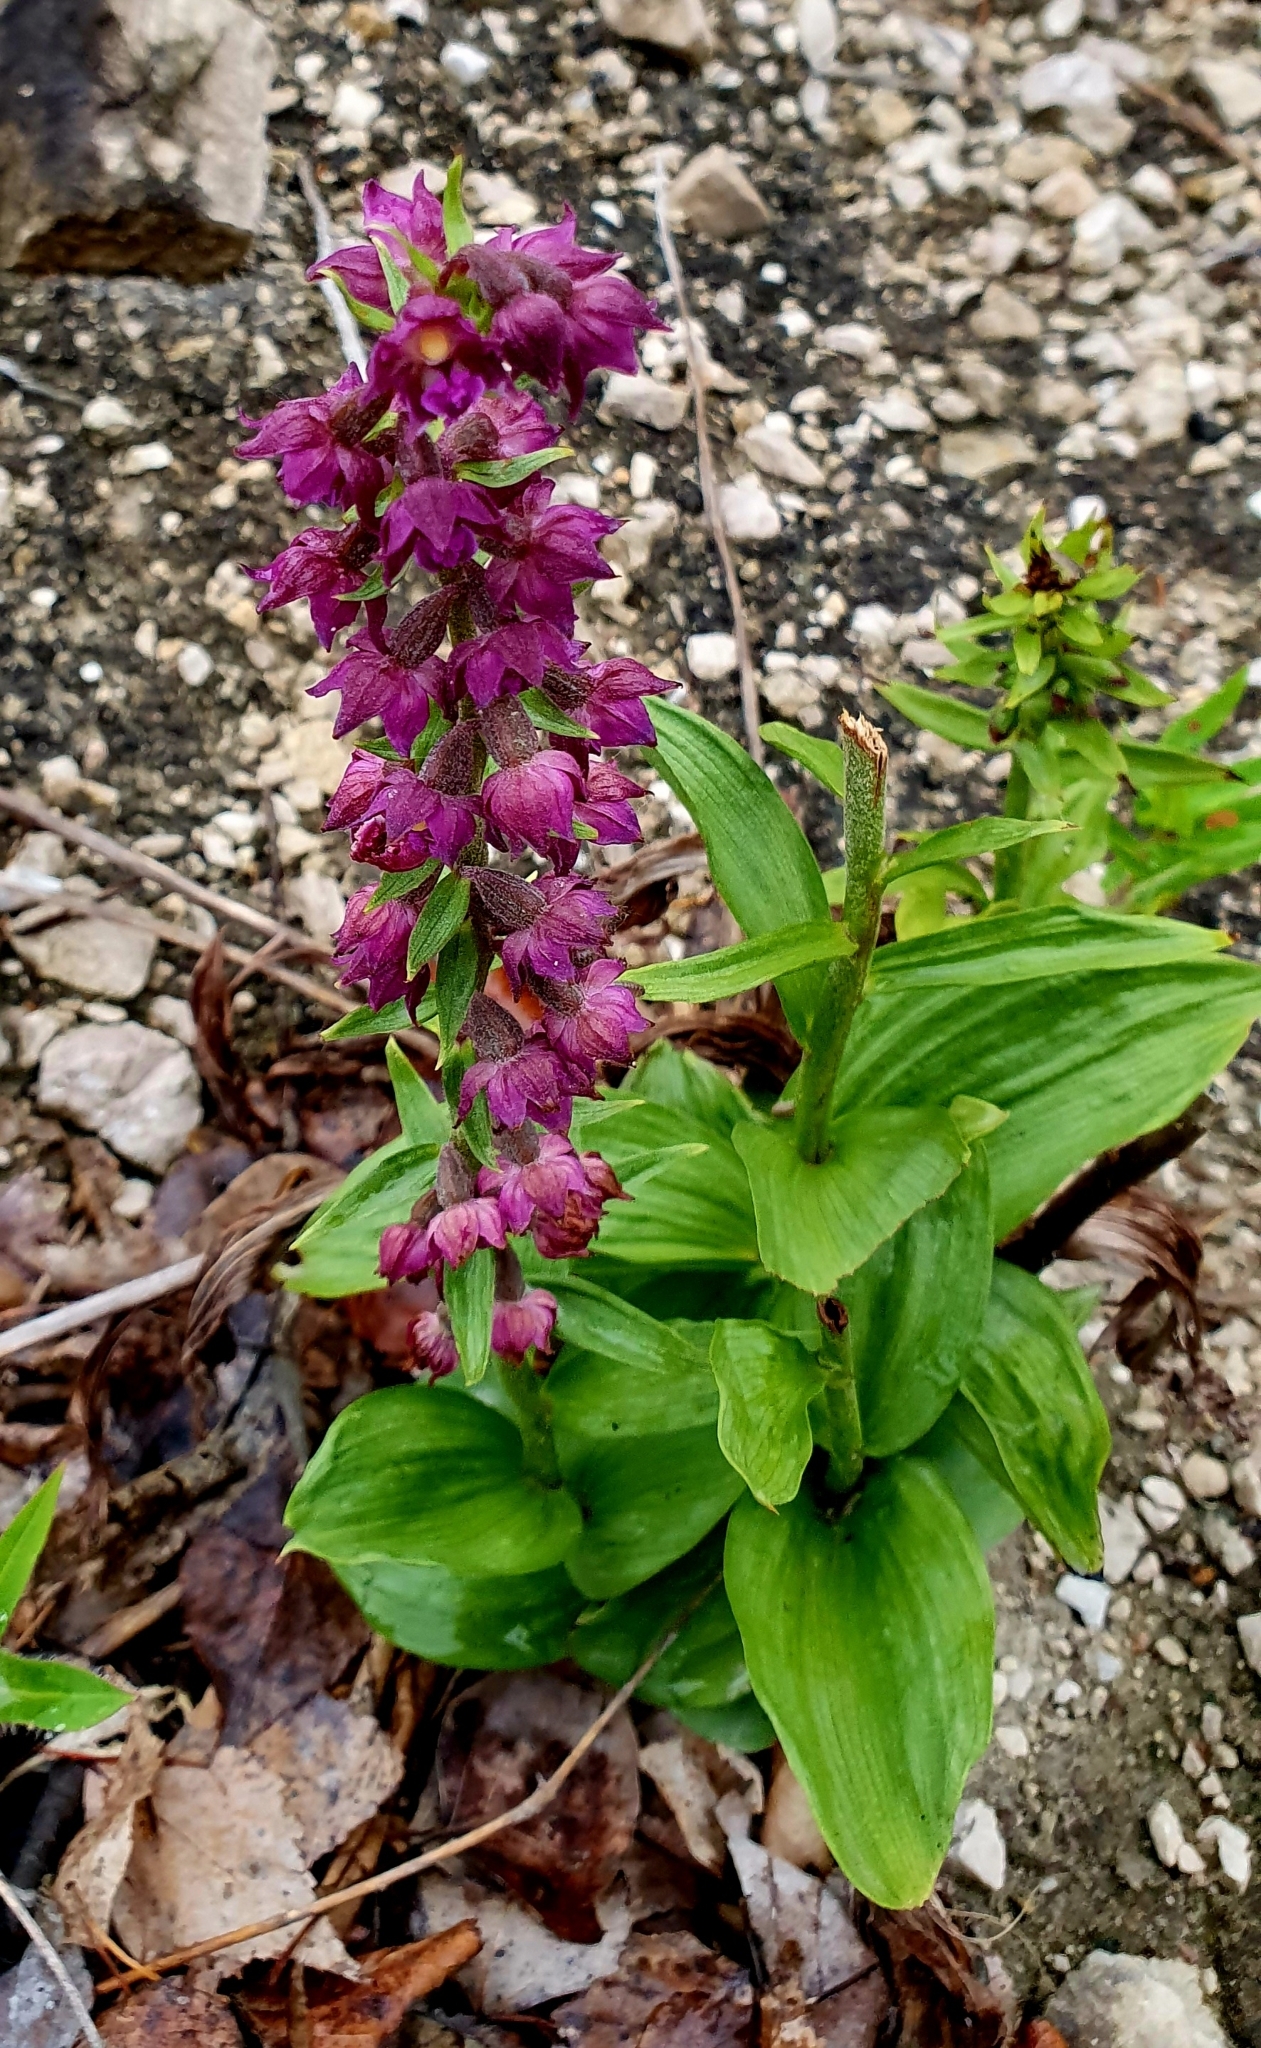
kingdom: Plantae
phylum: Tracheophyta
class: Liliopsida
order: Asparagales
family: Orchidaceae
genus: Epipactis
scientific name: Epipactis atrorubens
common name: Dark-red helleborine
